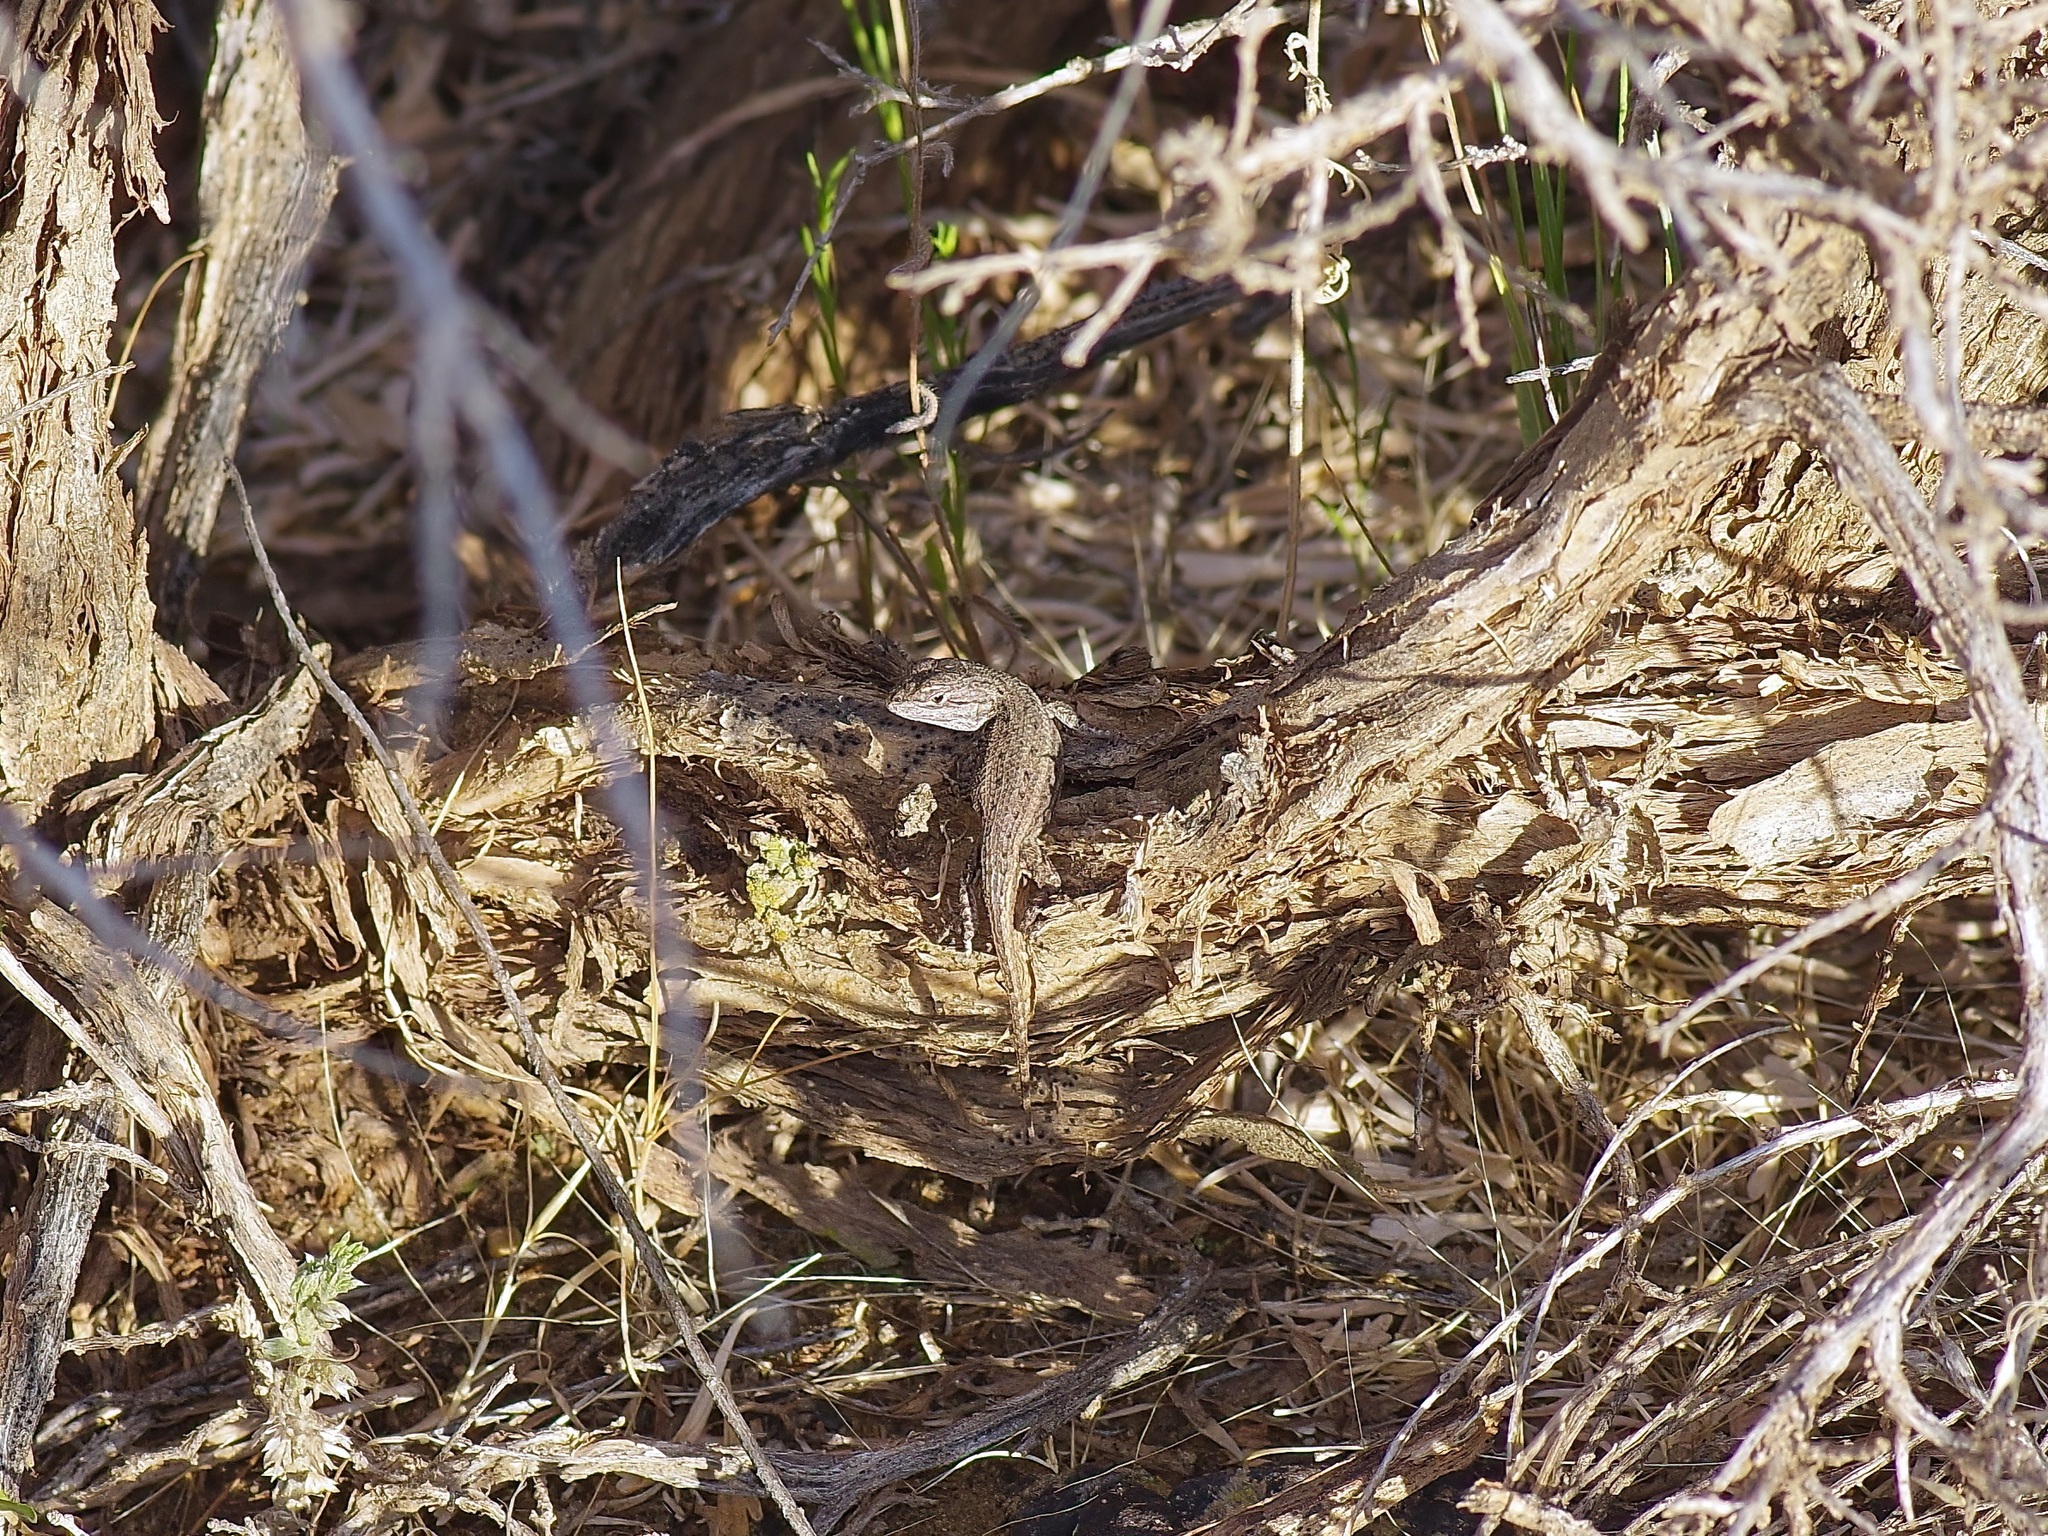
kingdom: Animalia
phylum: Chordata
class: Squamata
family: Phrynosomatidae
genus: Sceloporus
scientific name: Sceloporus
